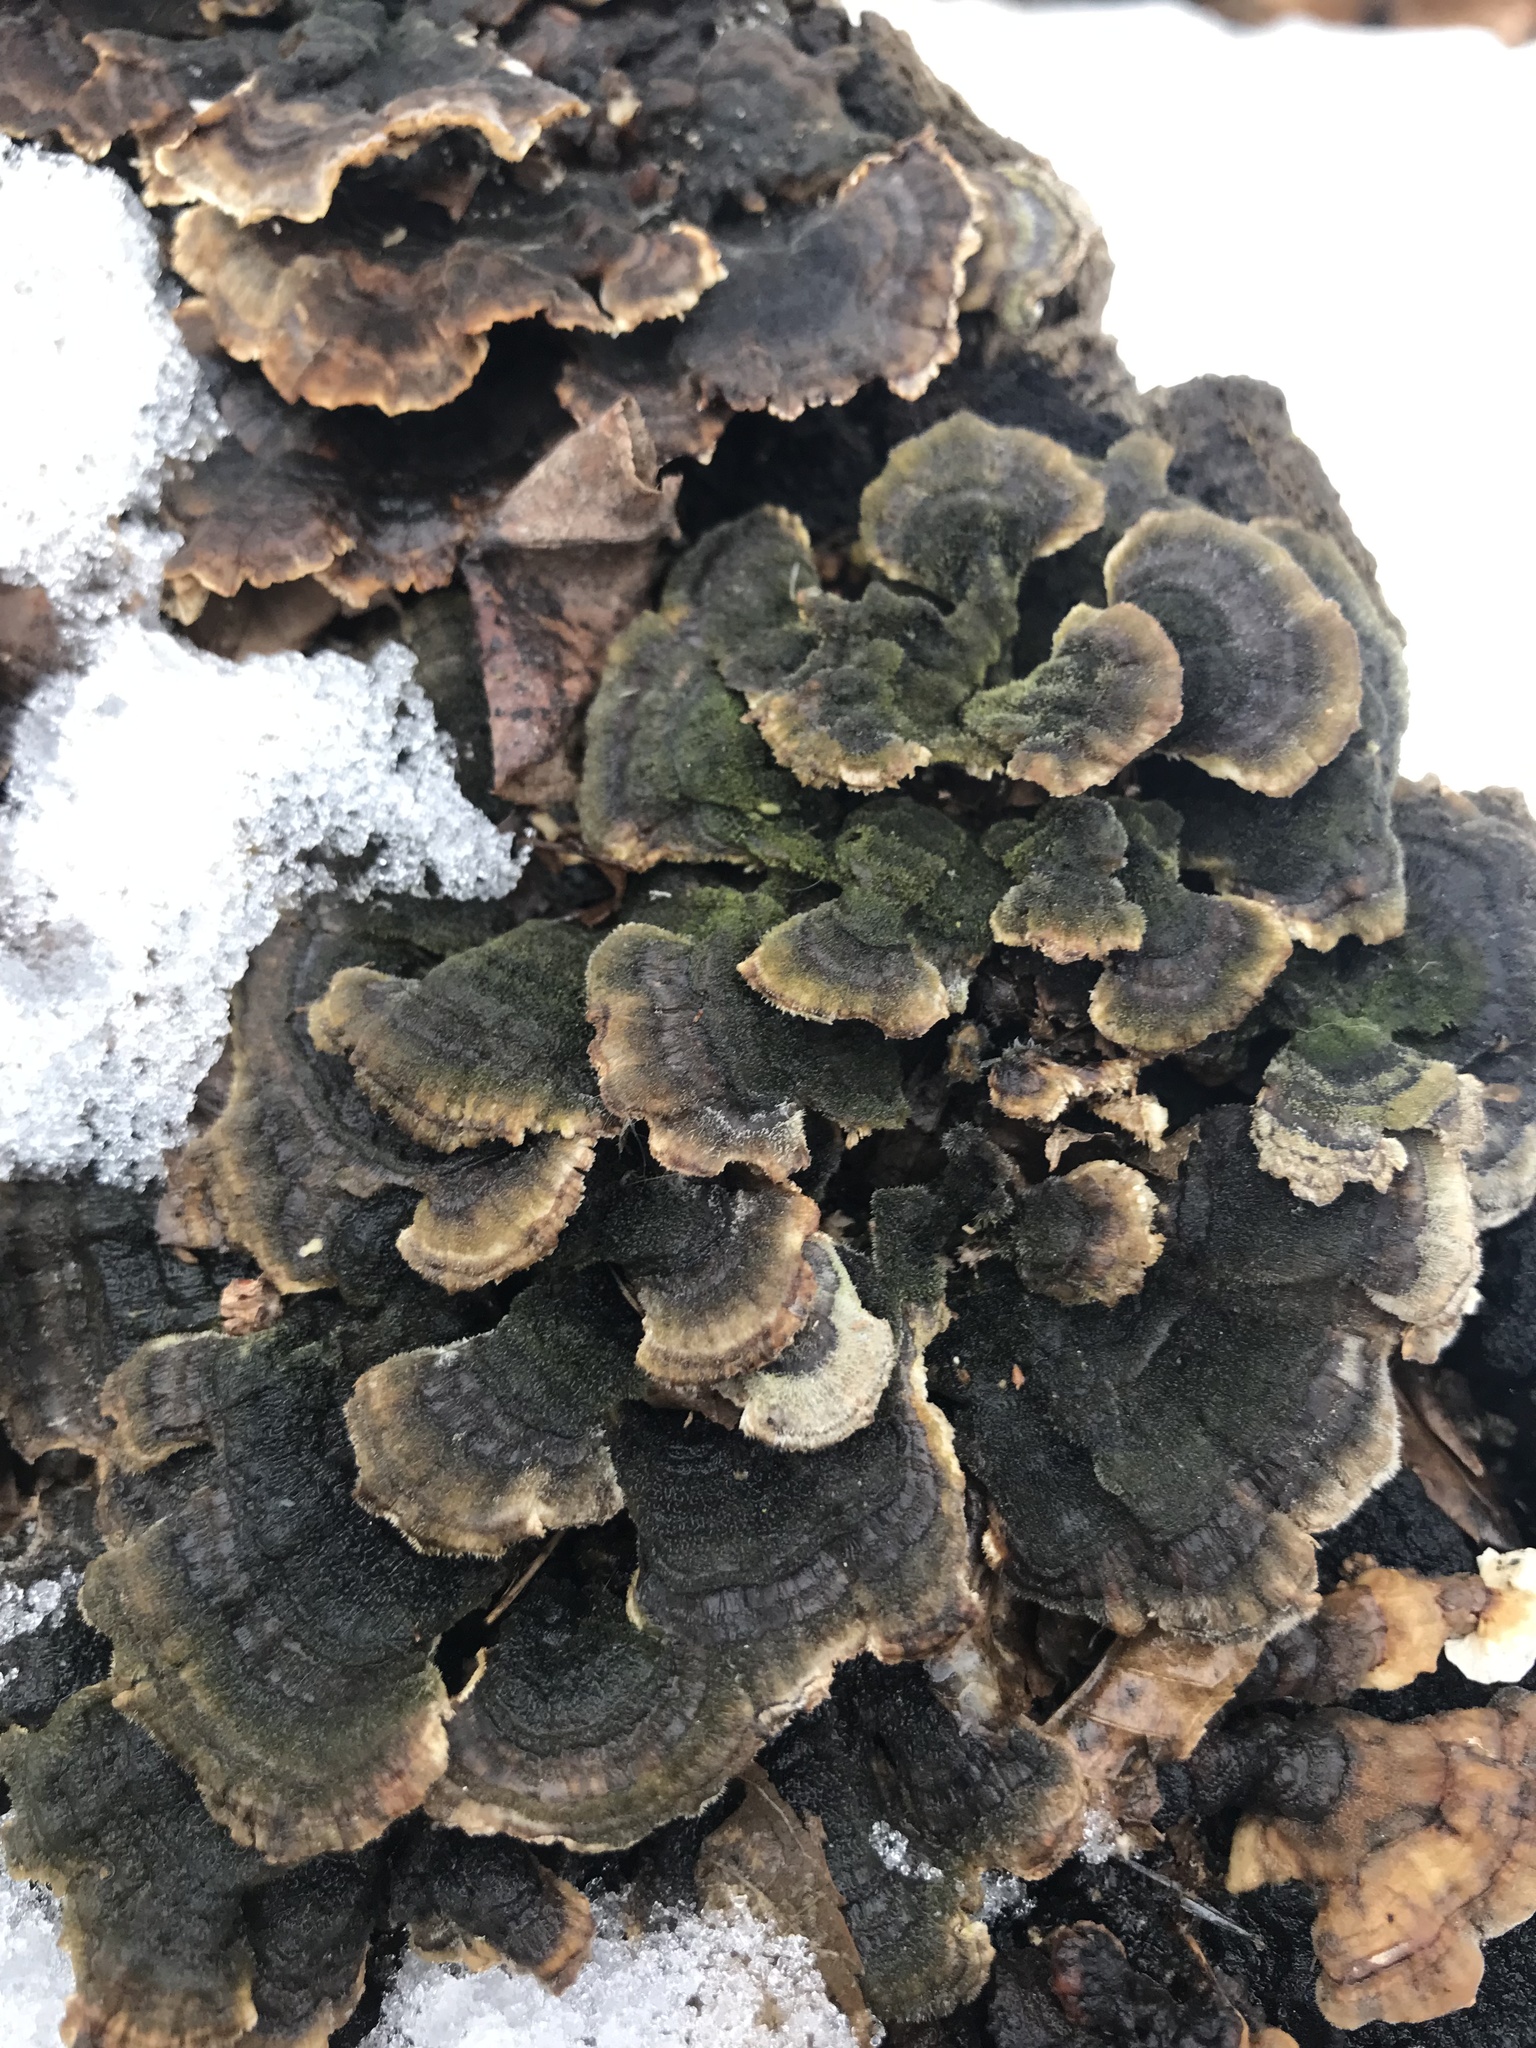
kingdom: Fungi
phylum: Basidiomycota
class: Agaricomycetes
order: Polyporales
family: Polyporaceae
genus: Trametes
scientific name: Trametes versicolor
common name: Turkeytail
